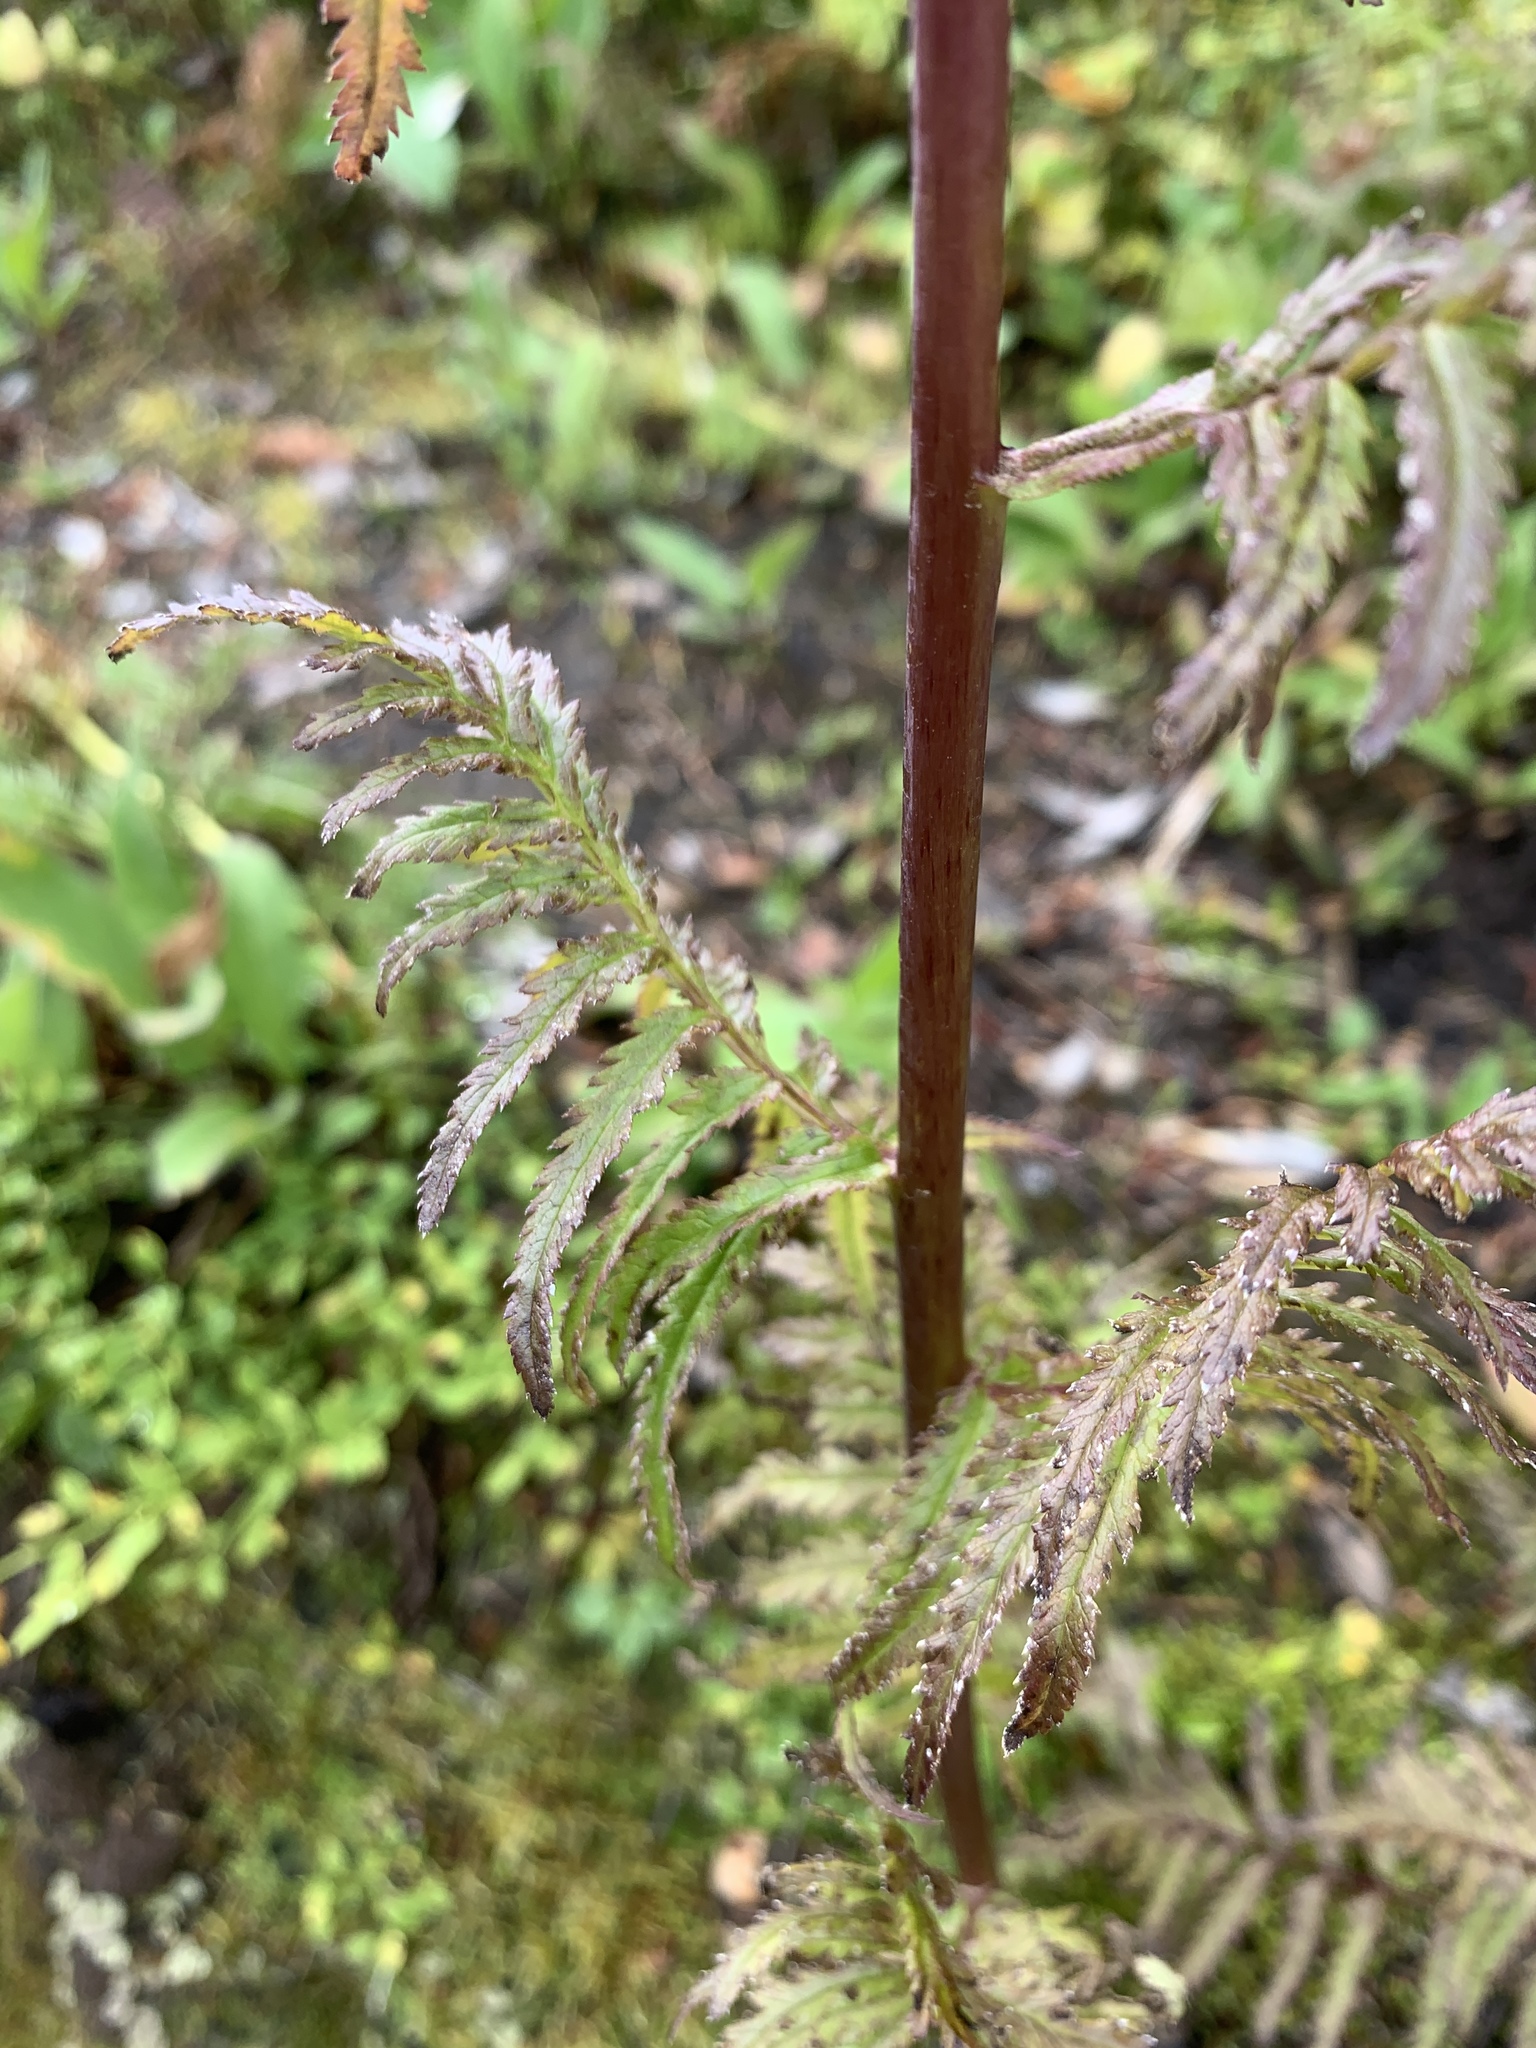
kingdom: Plantae
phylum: Tracheophyta
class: Magnoliopsida
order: Lamiales
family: Orobanchaceae
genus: Pedicularis
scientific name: Pedicularis bracteosa
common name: Bracted lousewort
